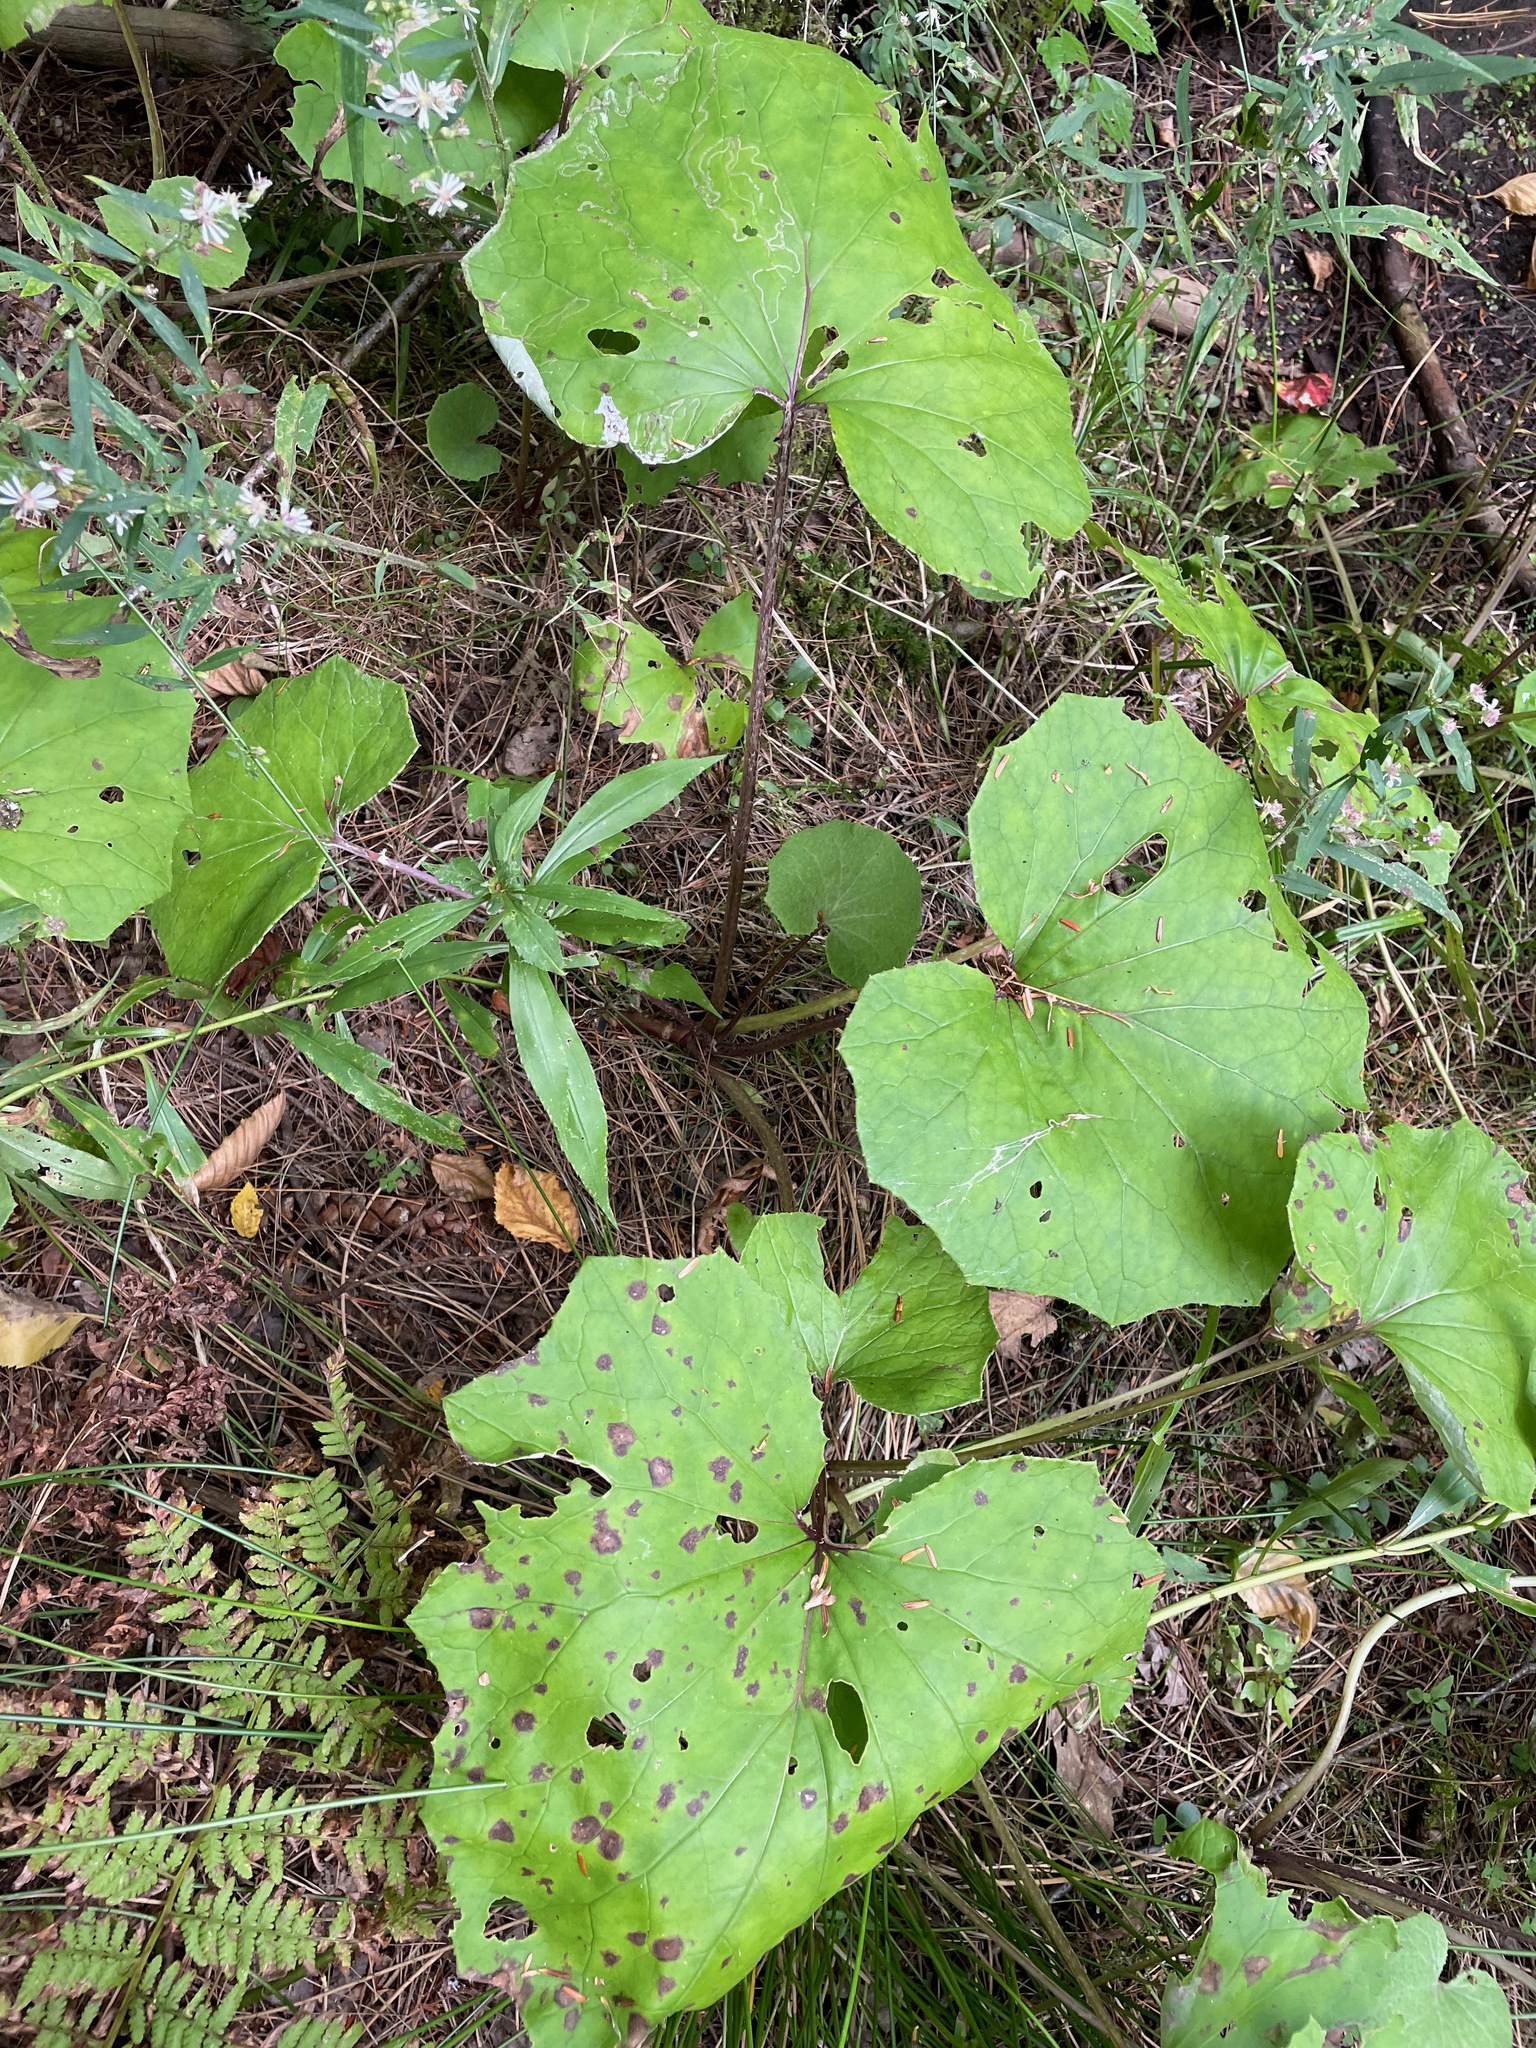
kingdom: Plantae
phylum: Tracheophyta
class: Magnoliopsida
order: Asterales
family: Asteraceae
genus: Tussilago
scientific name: Tussilago farfara
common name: Coltsfoot
